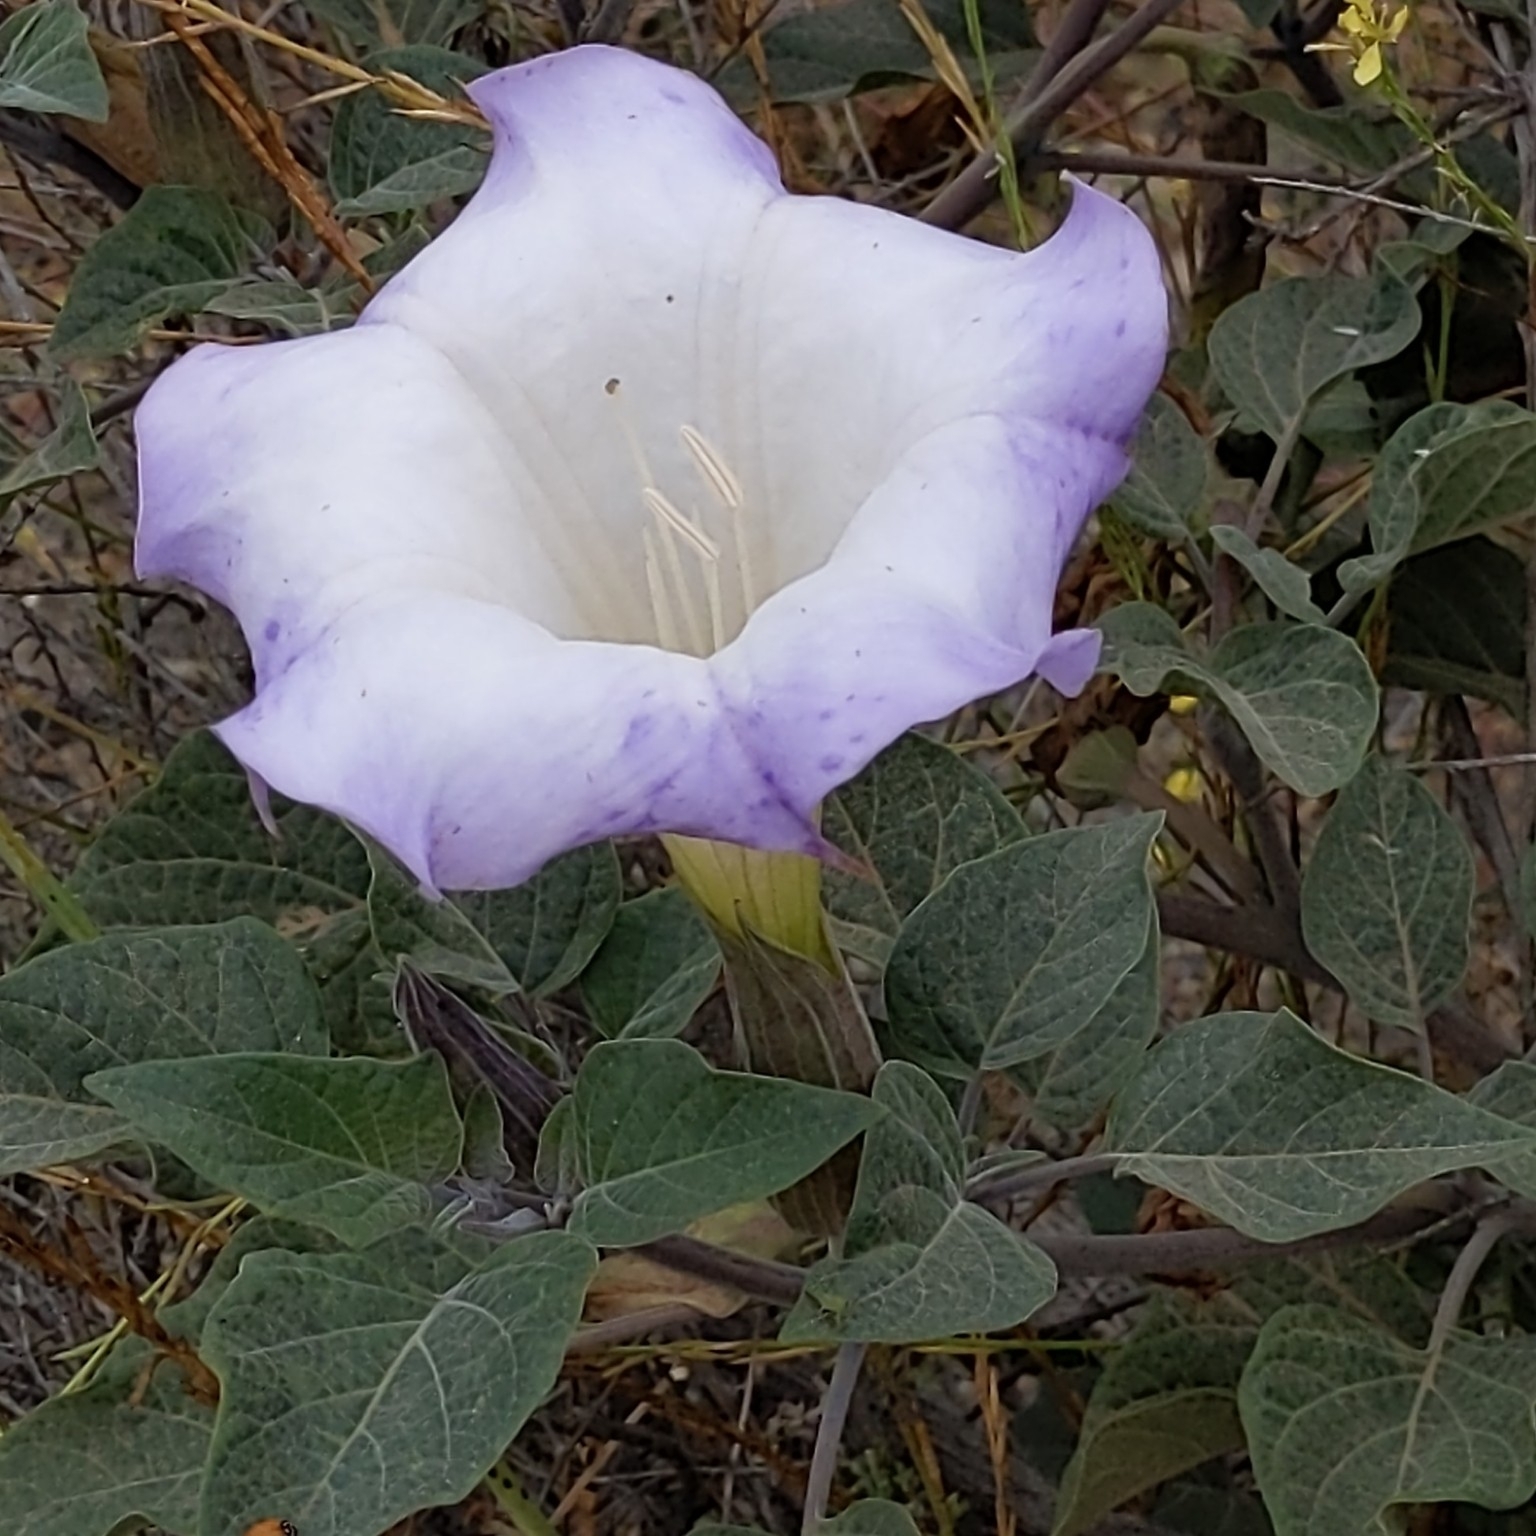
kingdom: Plantae
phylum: Tracheophyta
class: Magnoliopsida
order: Solanales
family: Solanaceae
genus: Datura
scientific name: Datura wrightii
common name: Sacred thorn-apple
